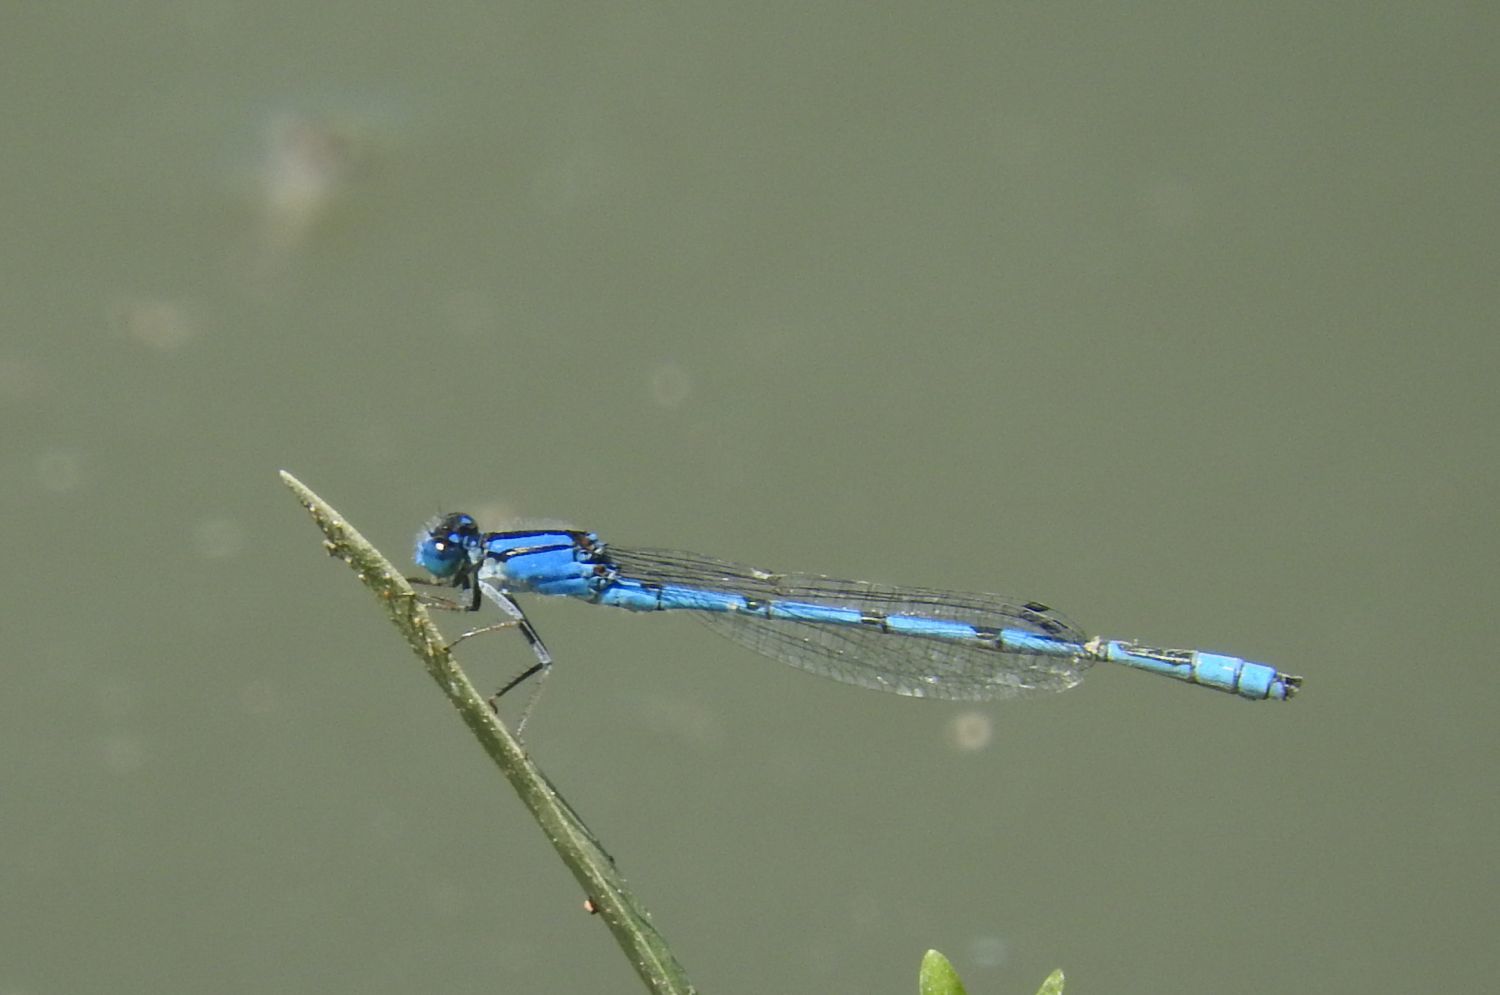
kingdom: Animalia
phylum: Arthropoda
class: Insecta
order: Odonata
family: Coenagrionidae
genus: Enallagma
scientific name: Enallagma civile
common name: Damselfly
